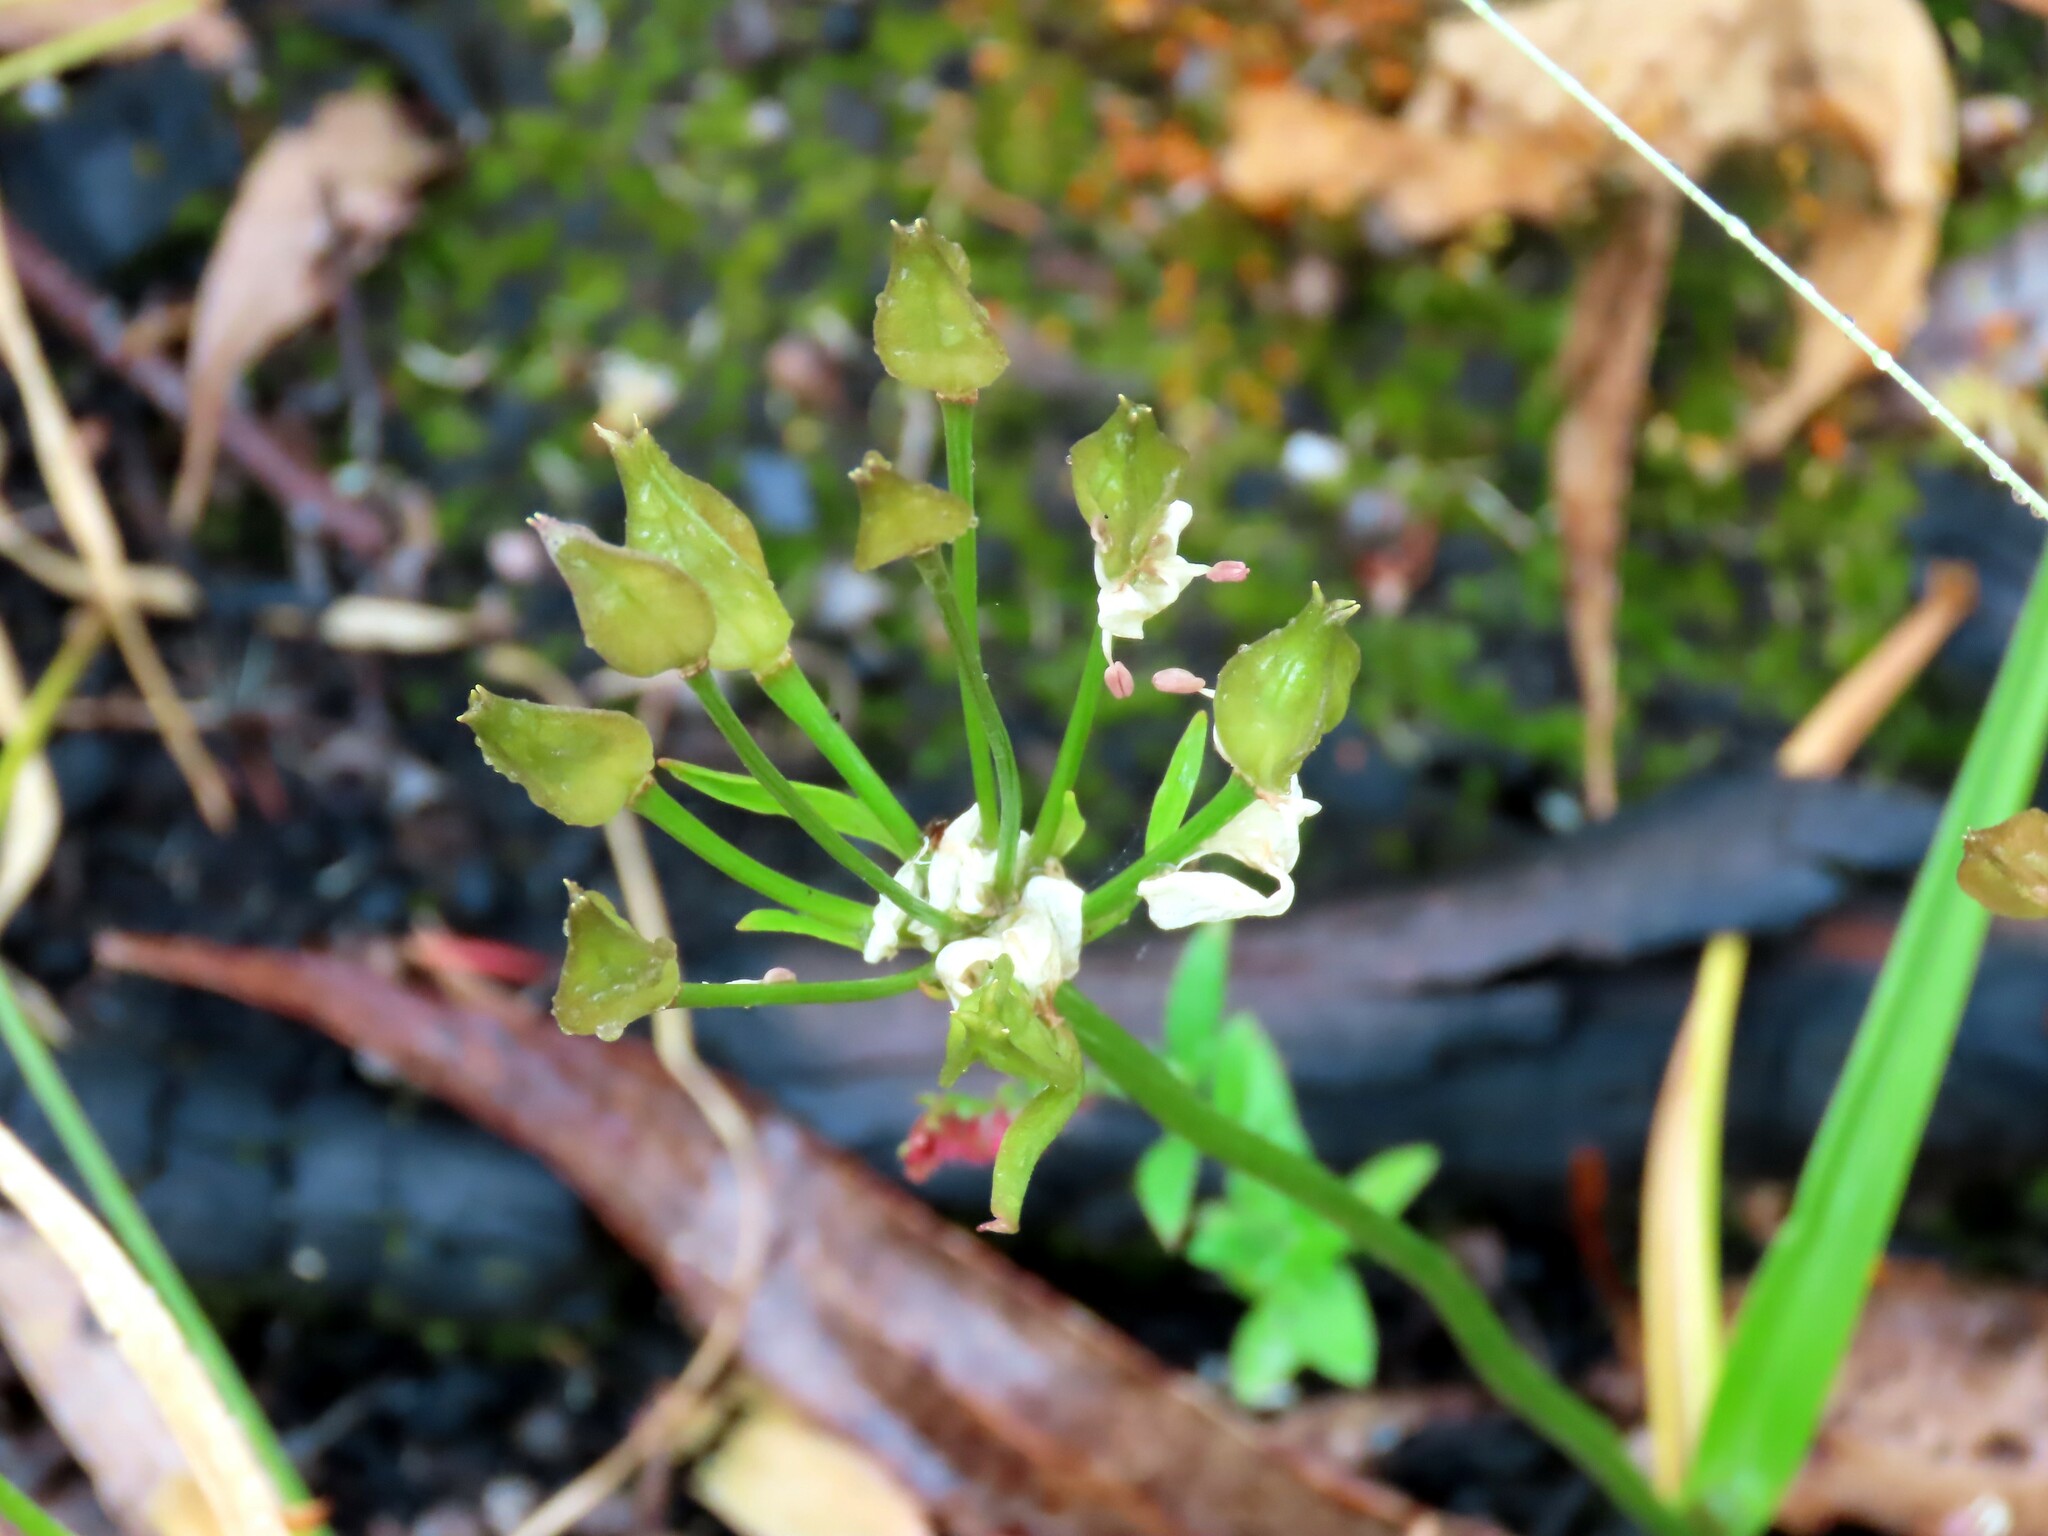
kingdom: Plantae
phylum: Tracheophyta
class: Liliopsida
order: Liliales
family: Colchicaceae
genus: Burchardia
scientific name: Burchardia umbellata
